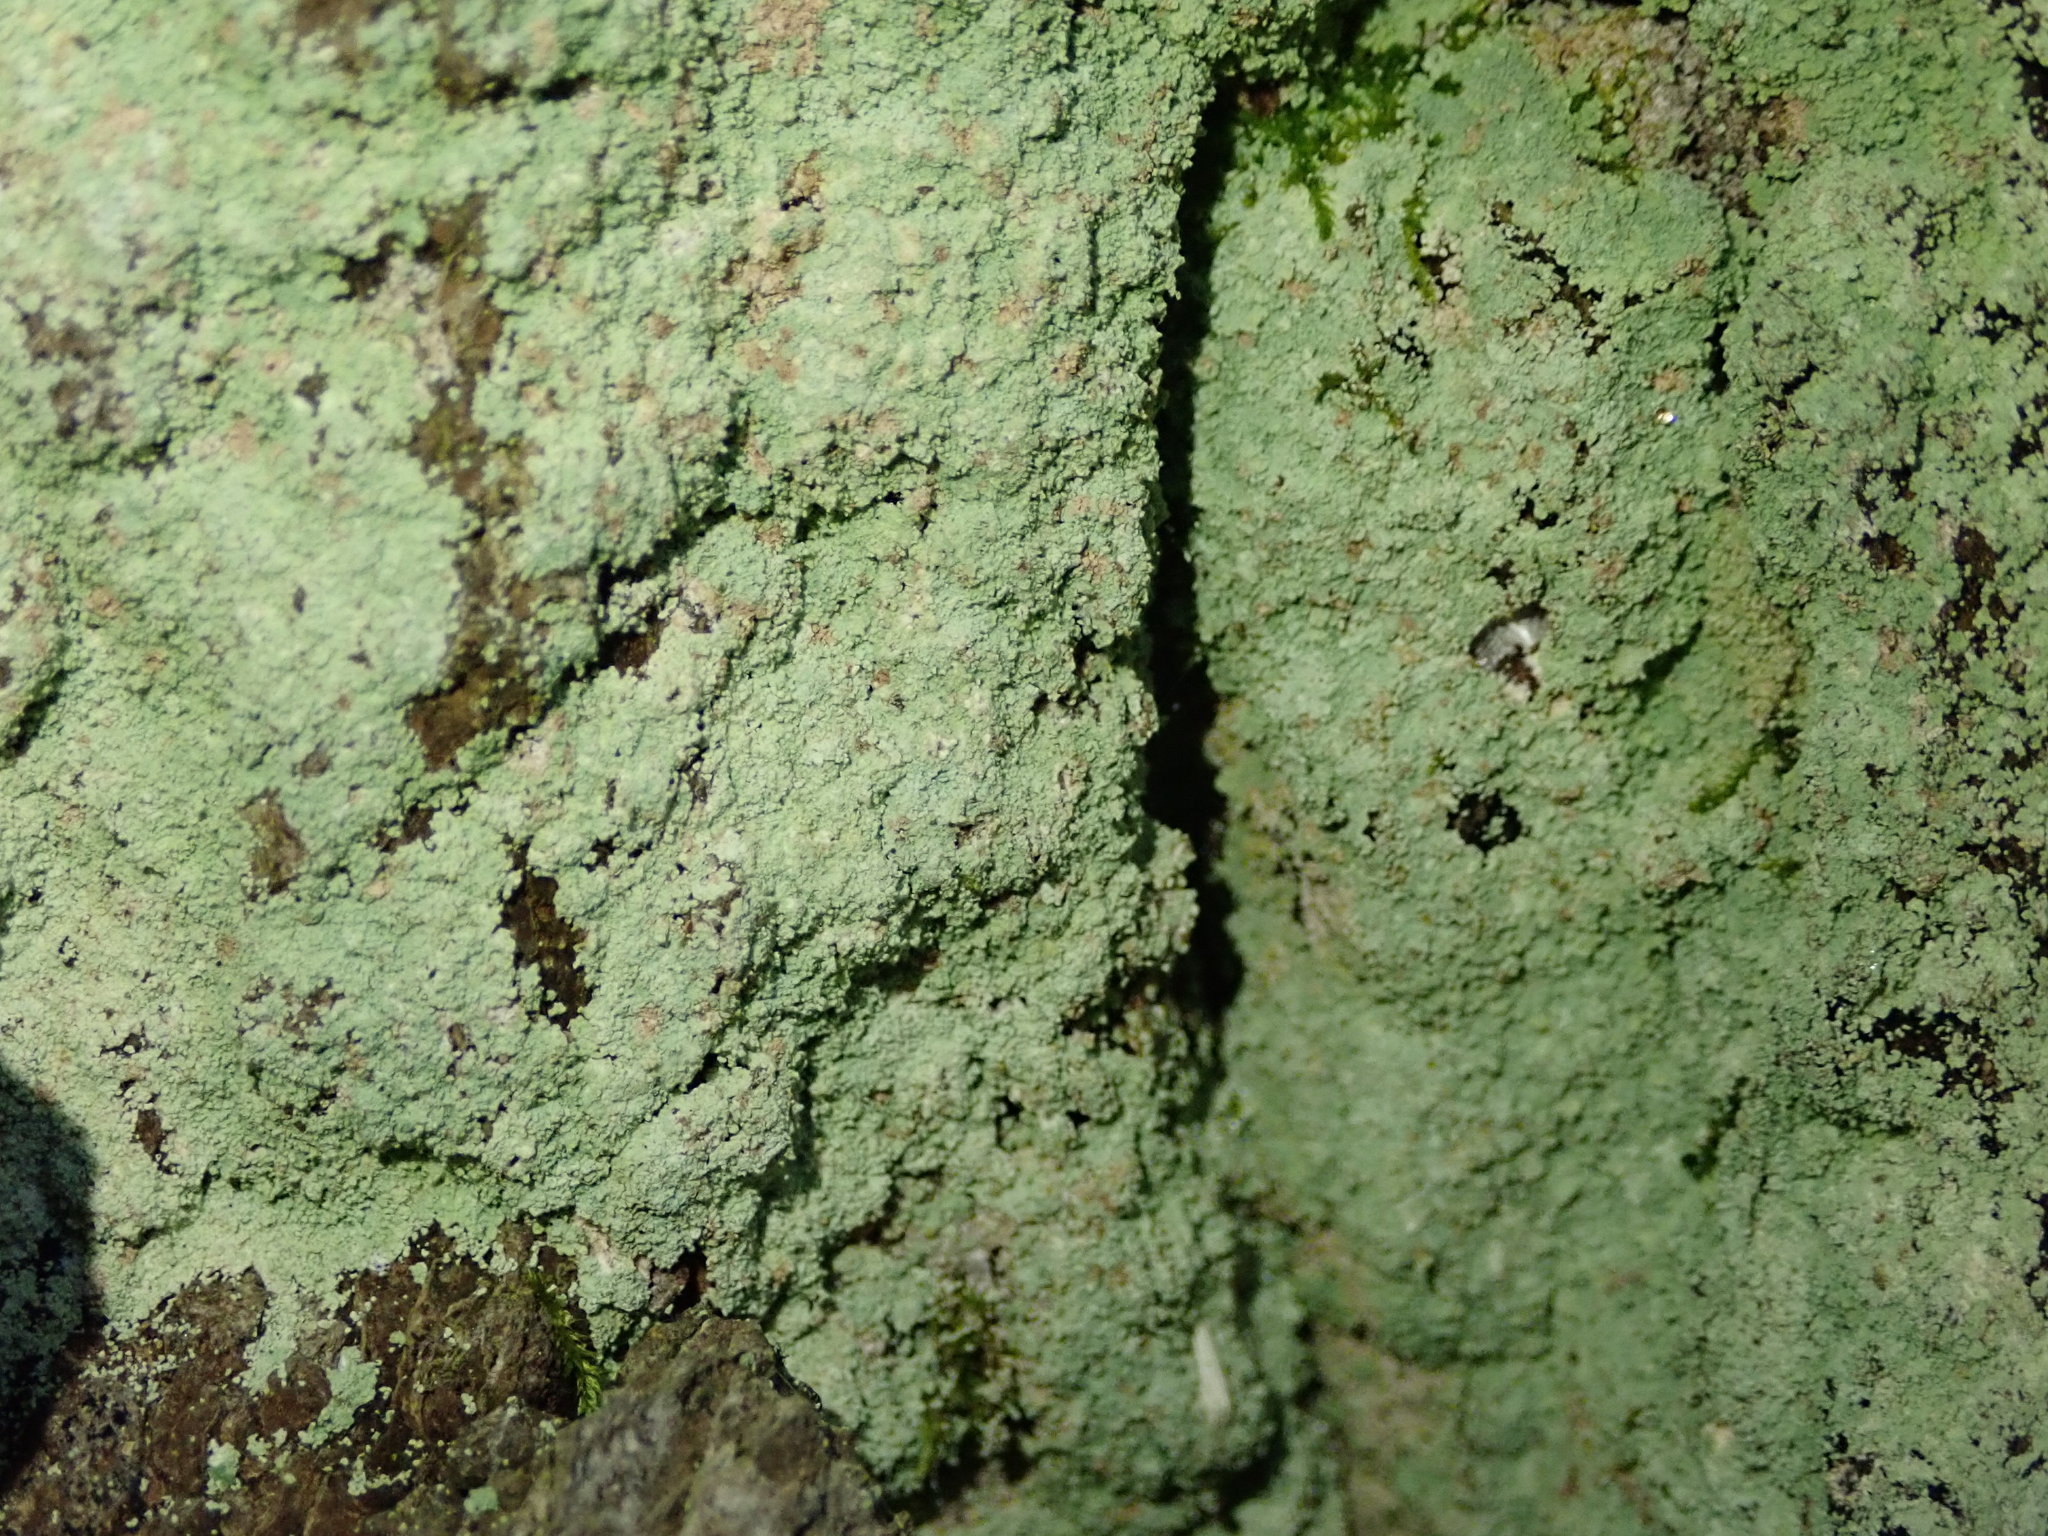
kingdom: Fungi
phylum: Ascomycota
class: Lecanoromycetes
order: Lecanorales
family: Stereocaulaceae
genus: Lepraria
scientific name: Lepraria lobificans
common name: Fluffy dust lichen
